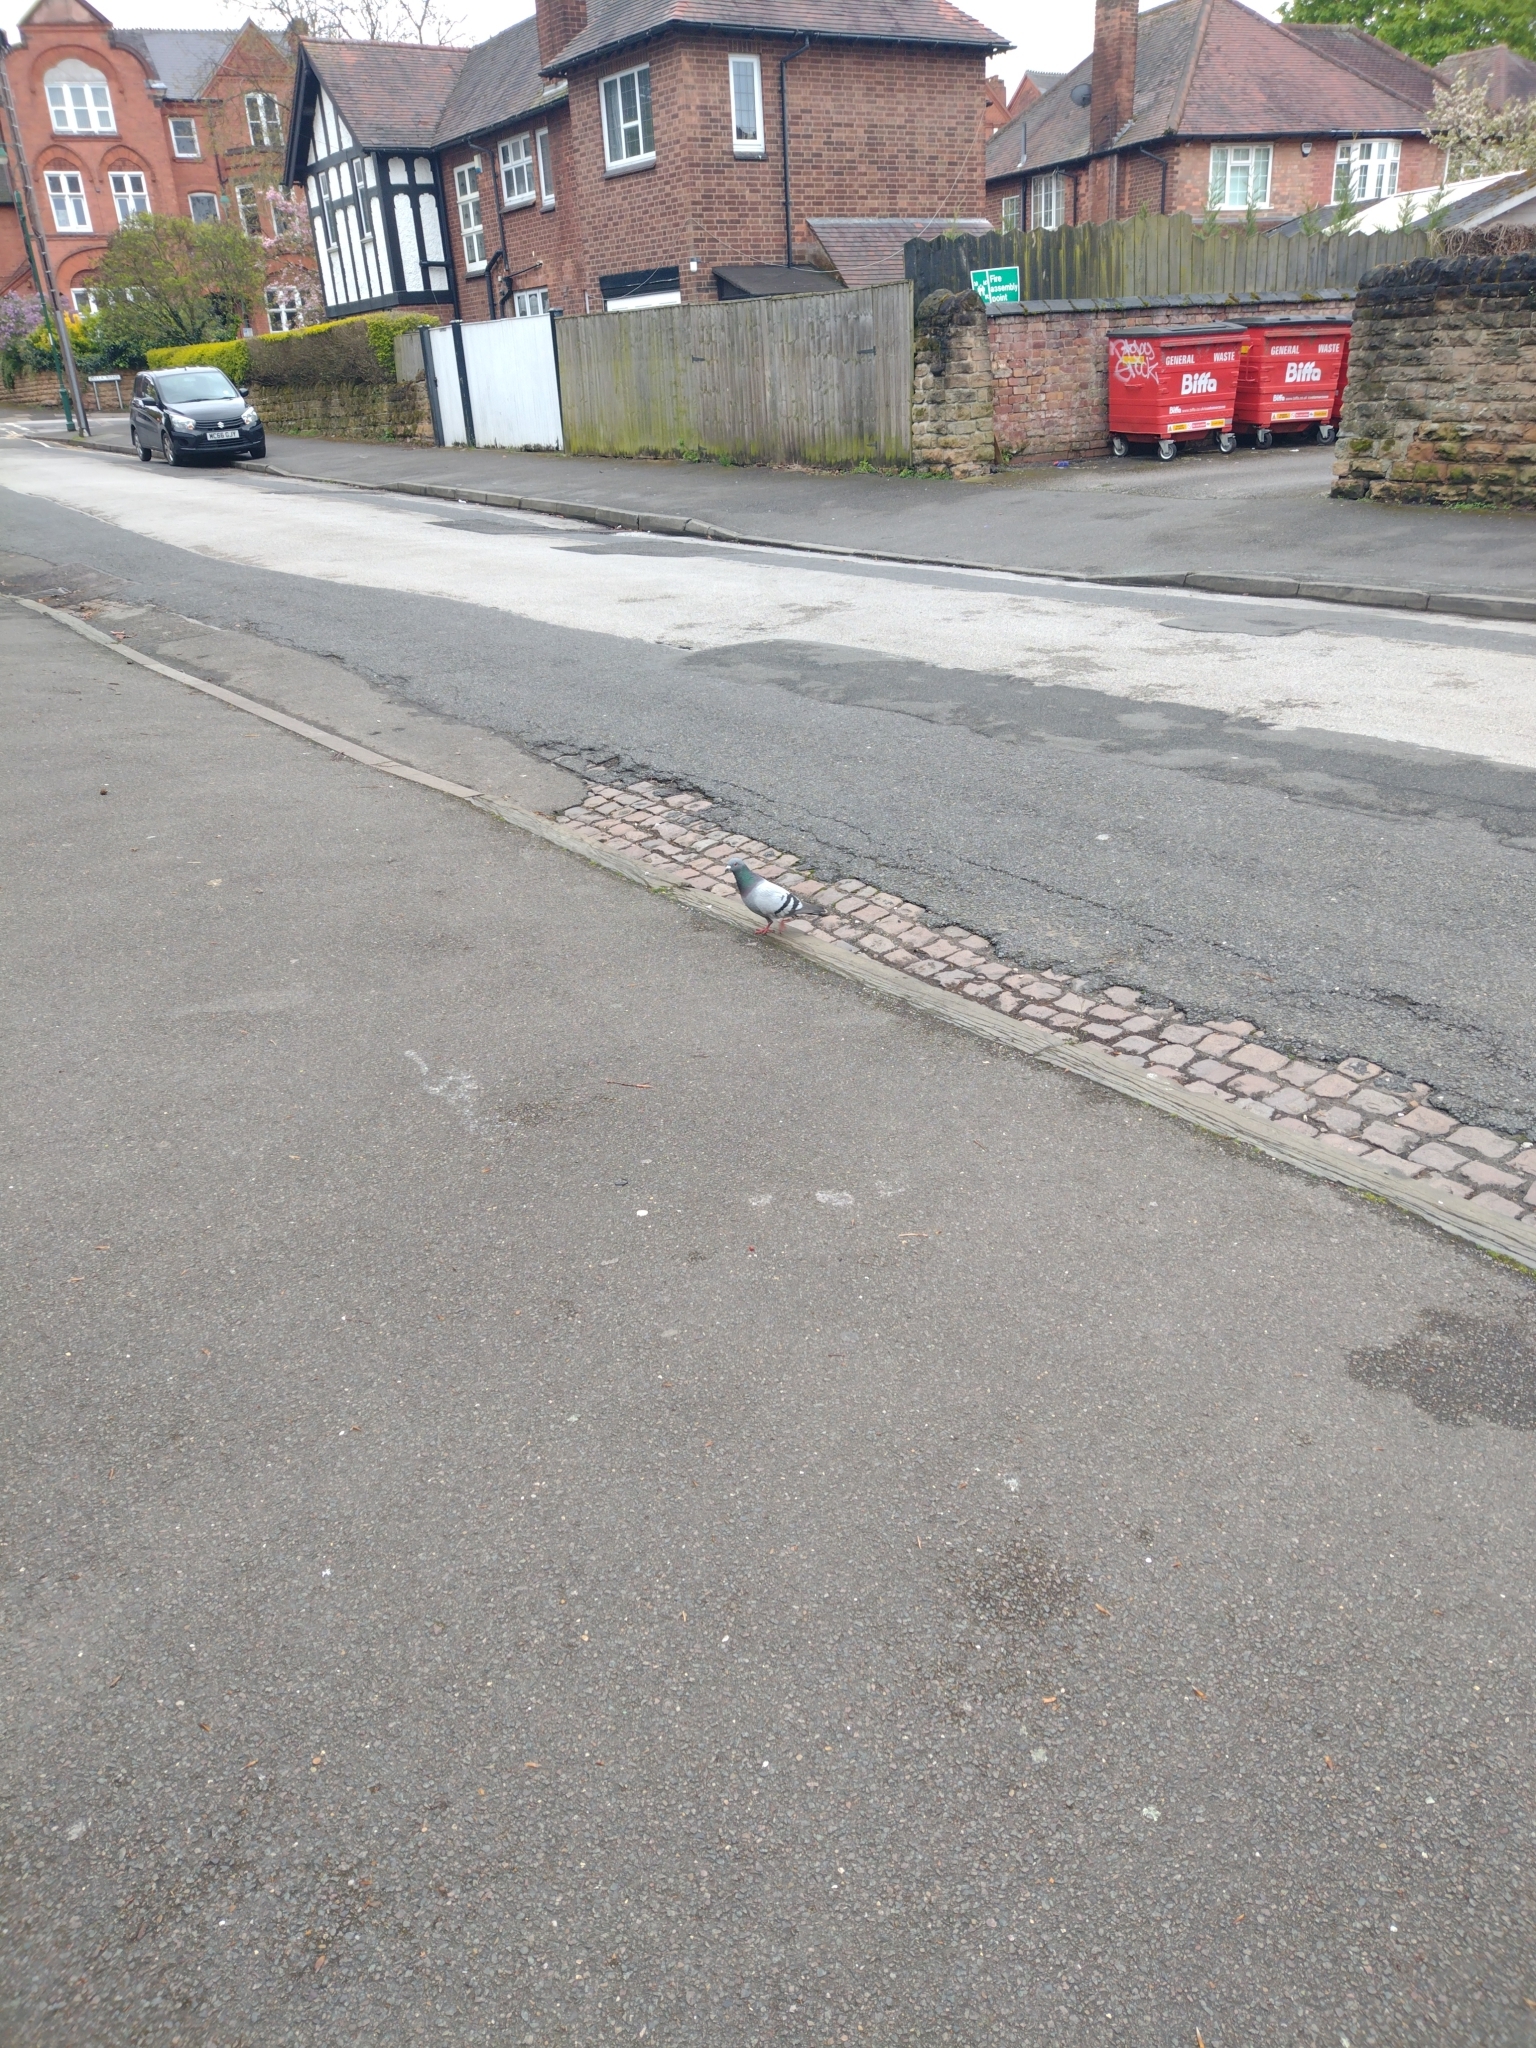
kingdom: Animalia
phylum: Chordata
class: Aves
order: Columbiformes
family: Columbidae
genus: Columba
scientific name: Columba livia
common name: Rock pigeon
